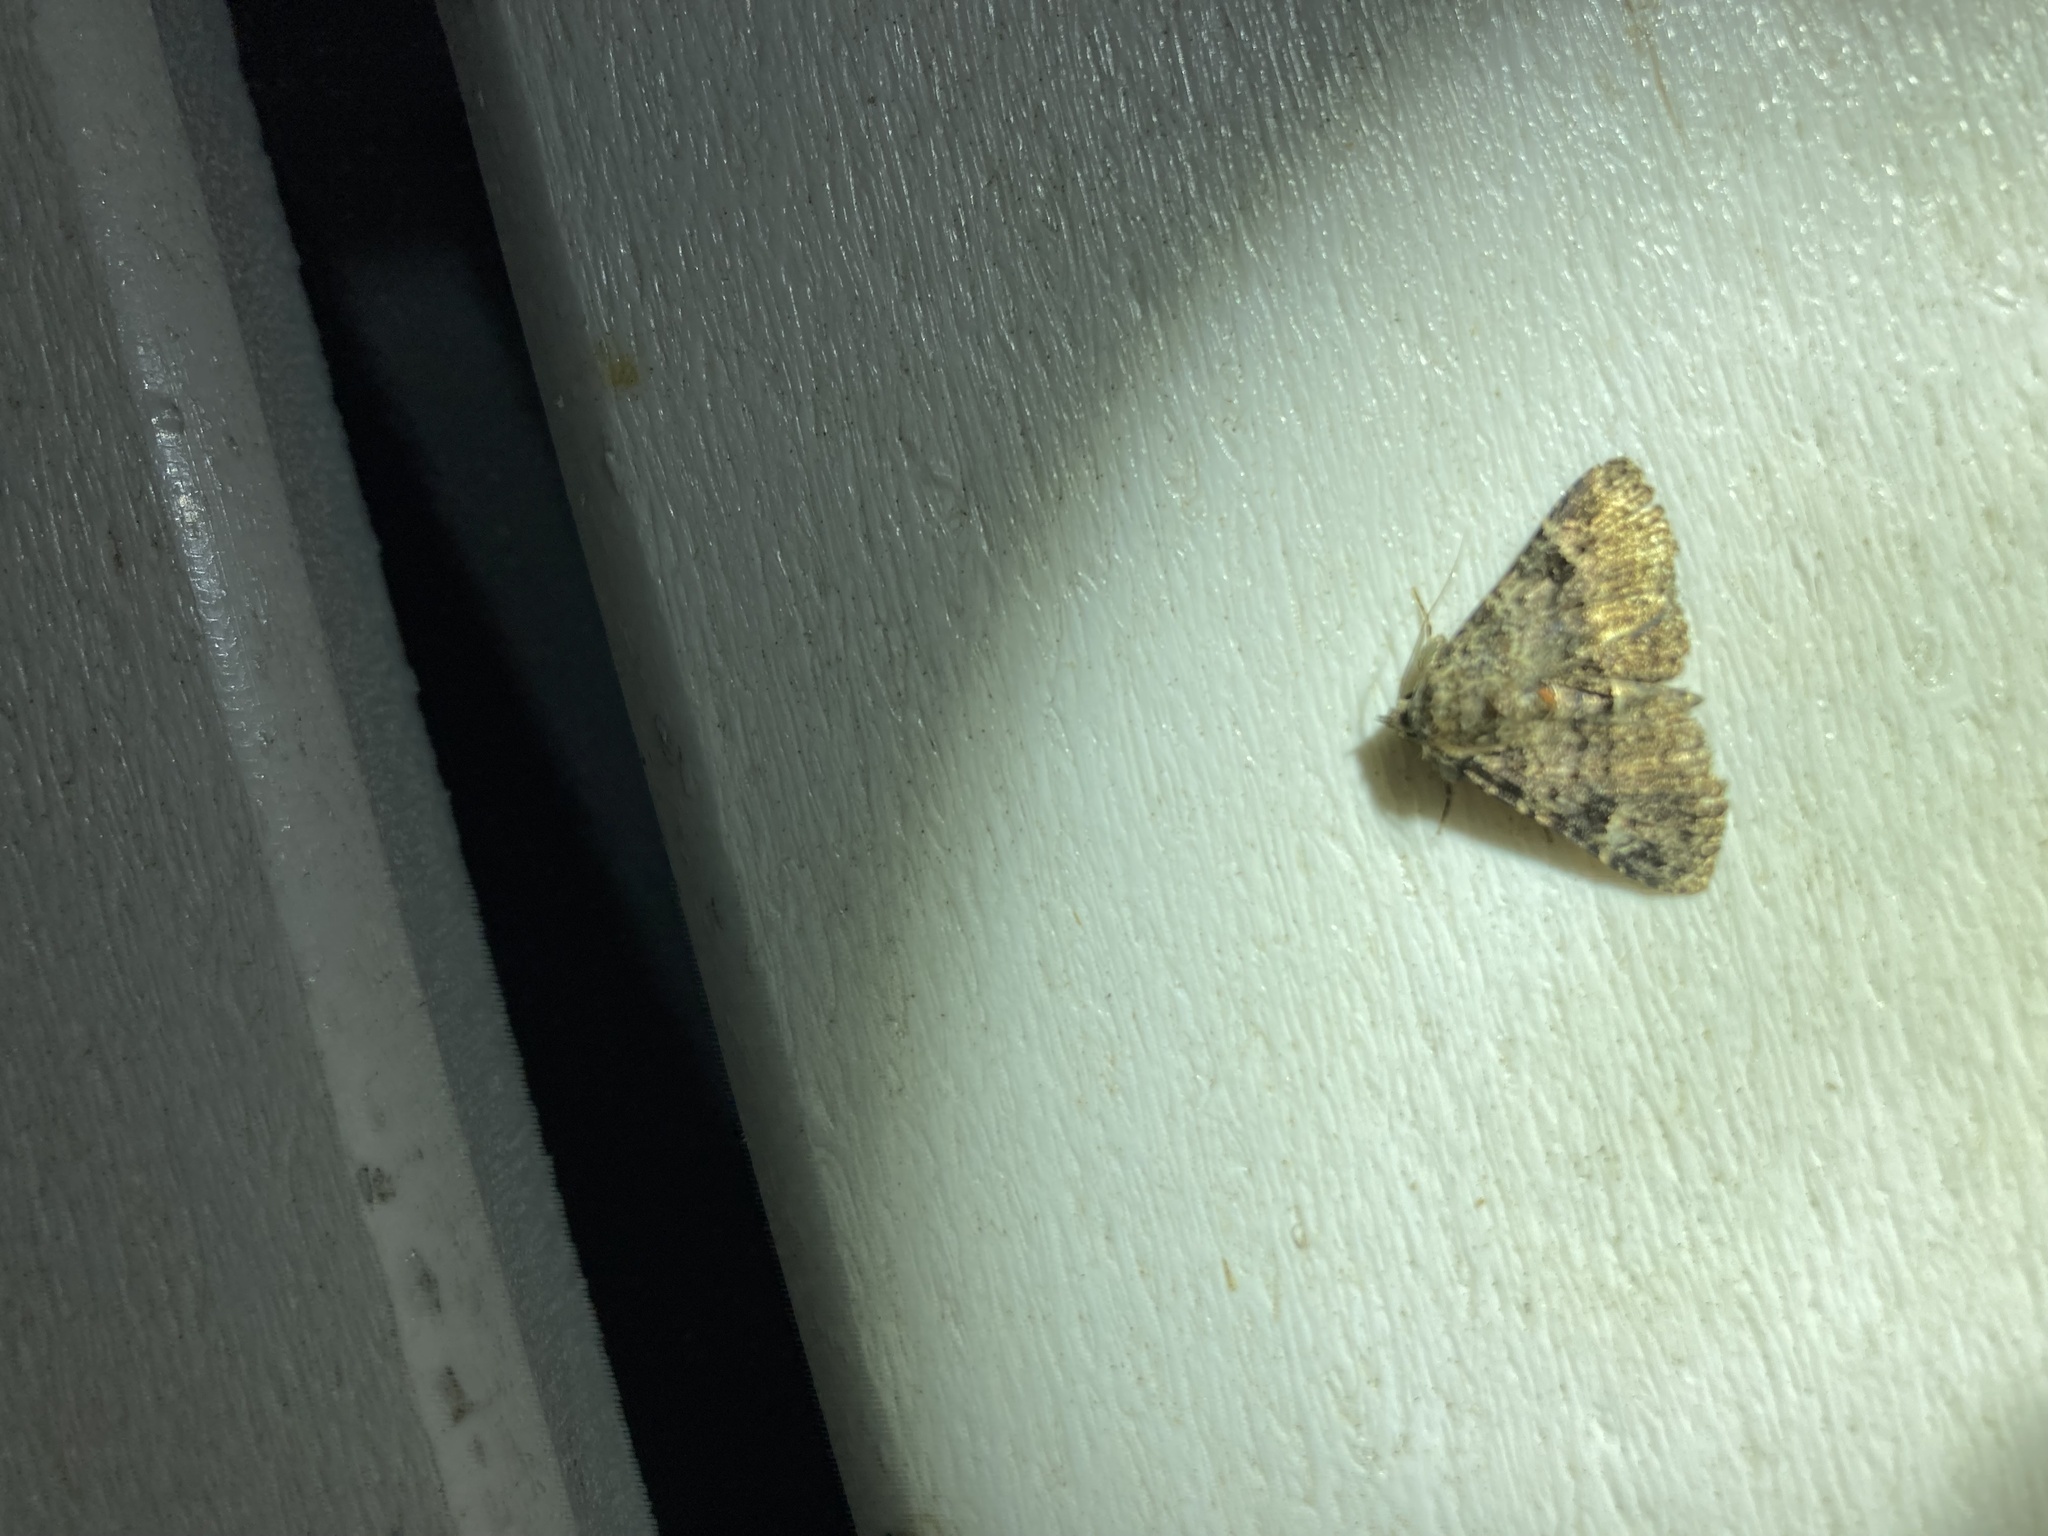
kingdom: Animalia
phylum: Arthropoda
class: Insecta
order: Lepidoptera
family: Erebidae
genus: Metalectra
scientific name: Metalectra discalis
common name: Common fungus moth
